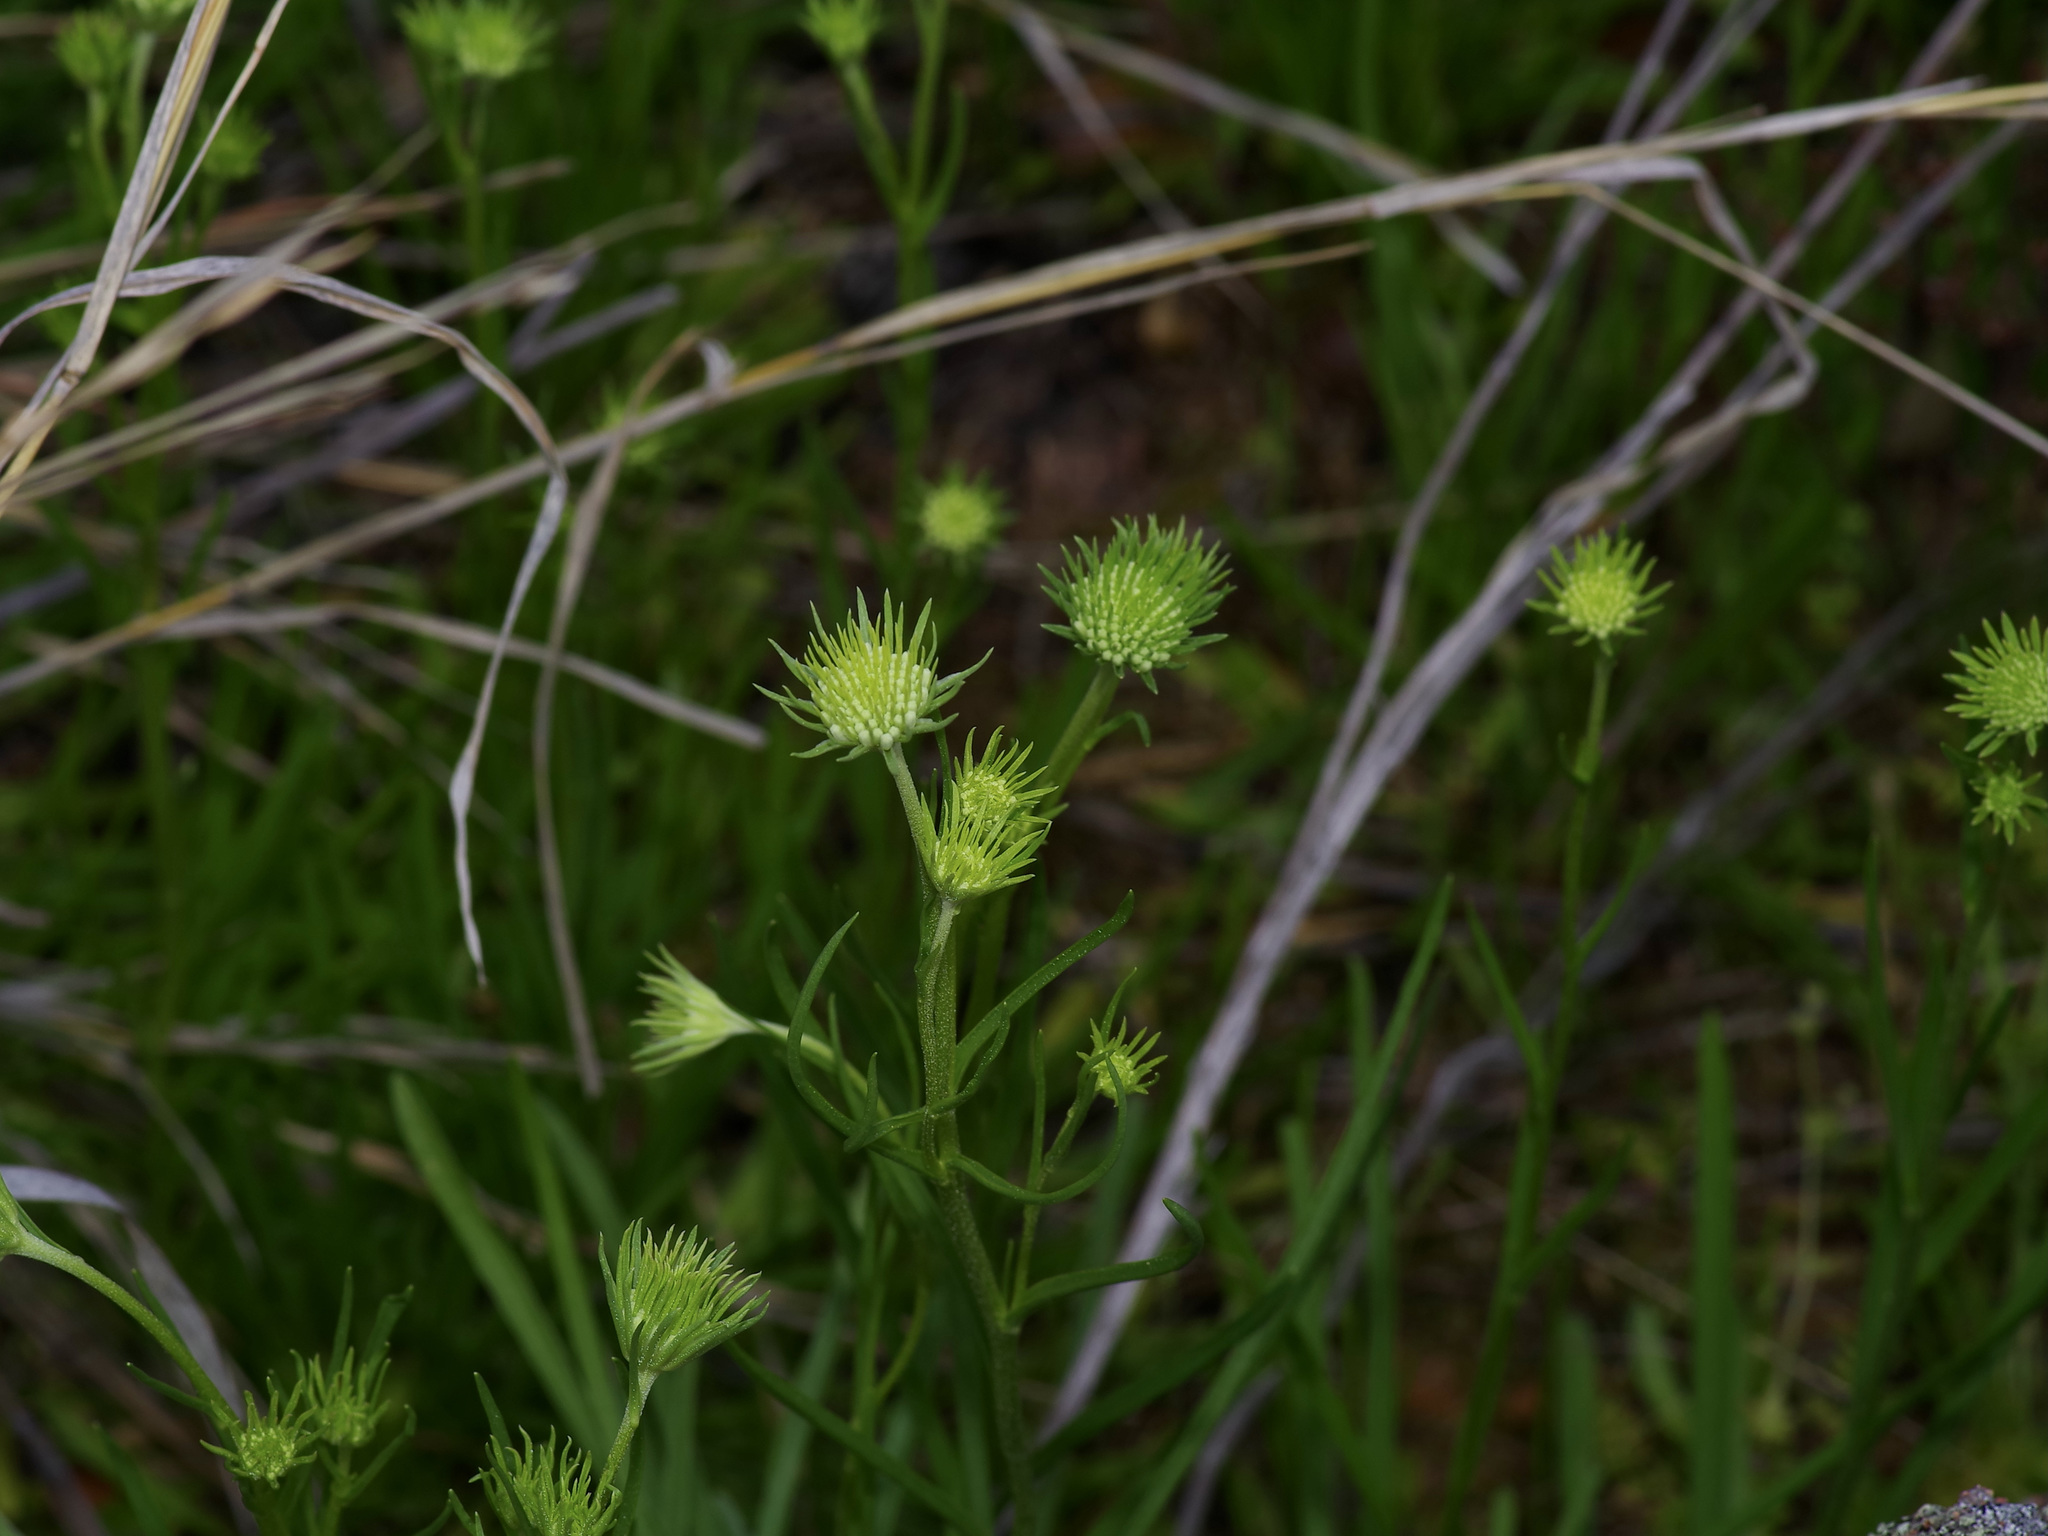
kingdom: Plantae
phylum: Tracheophyta
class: Magnoliopsida
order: Asterales
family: Asteraceae
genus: Marshallia
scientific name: Marshallia caespitosa
